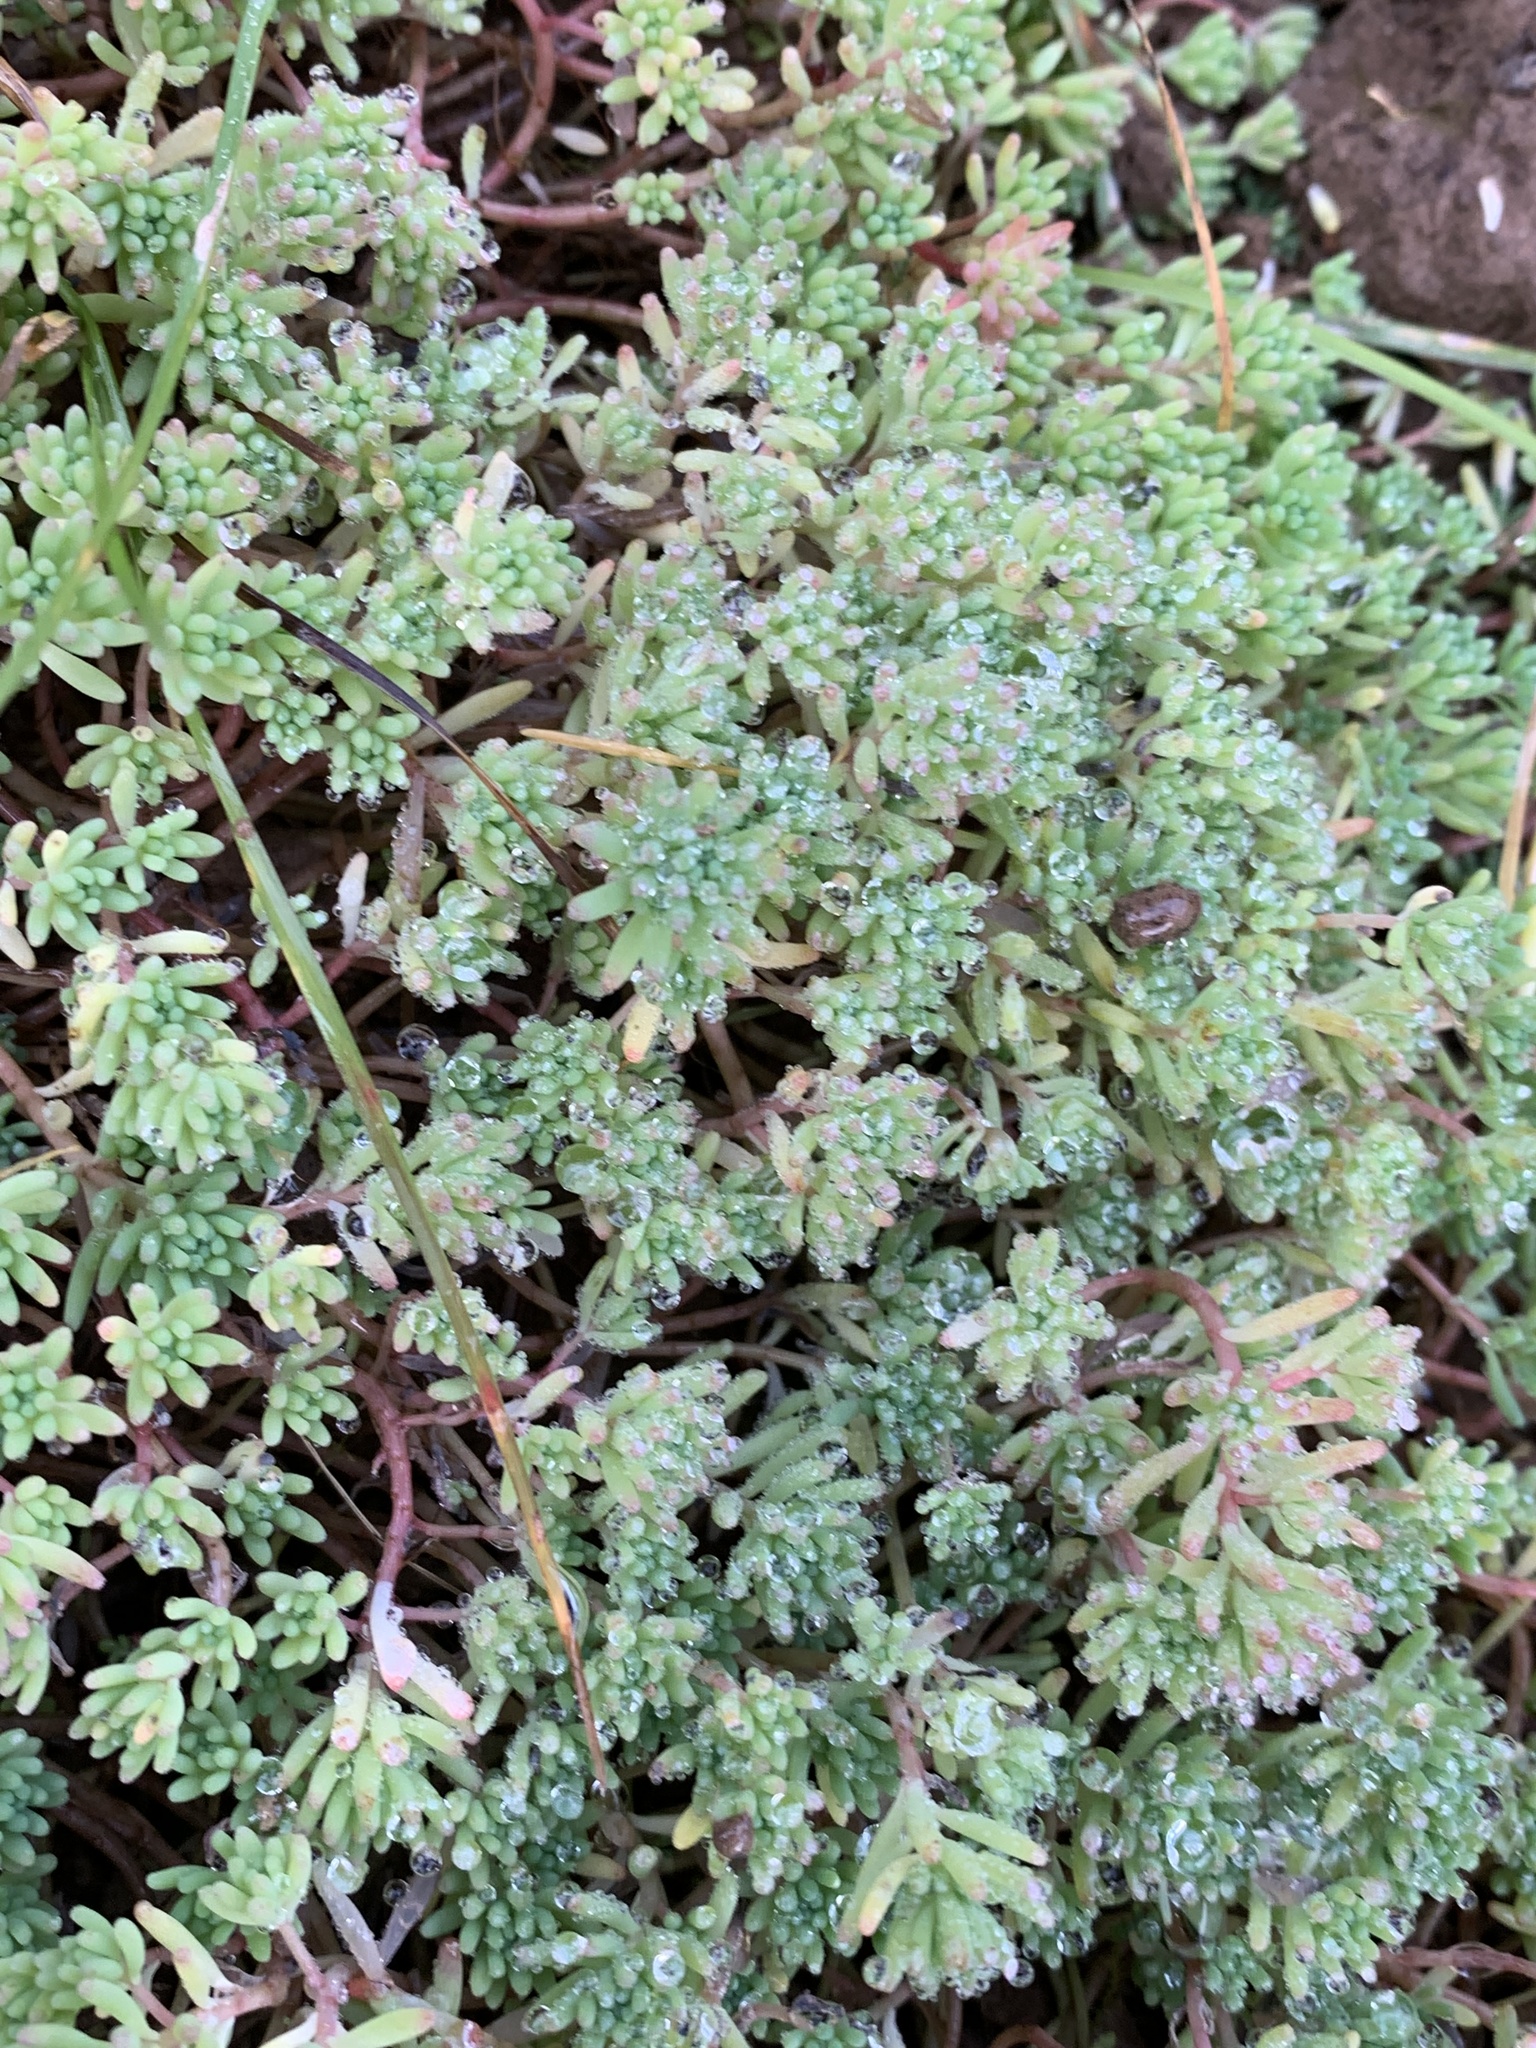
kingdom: Plantae
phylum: Tracheophyta
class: Magnoliopsida
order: Saxifragales
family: Crassulaceae
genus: Sedum
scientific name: Sedum pallidum
